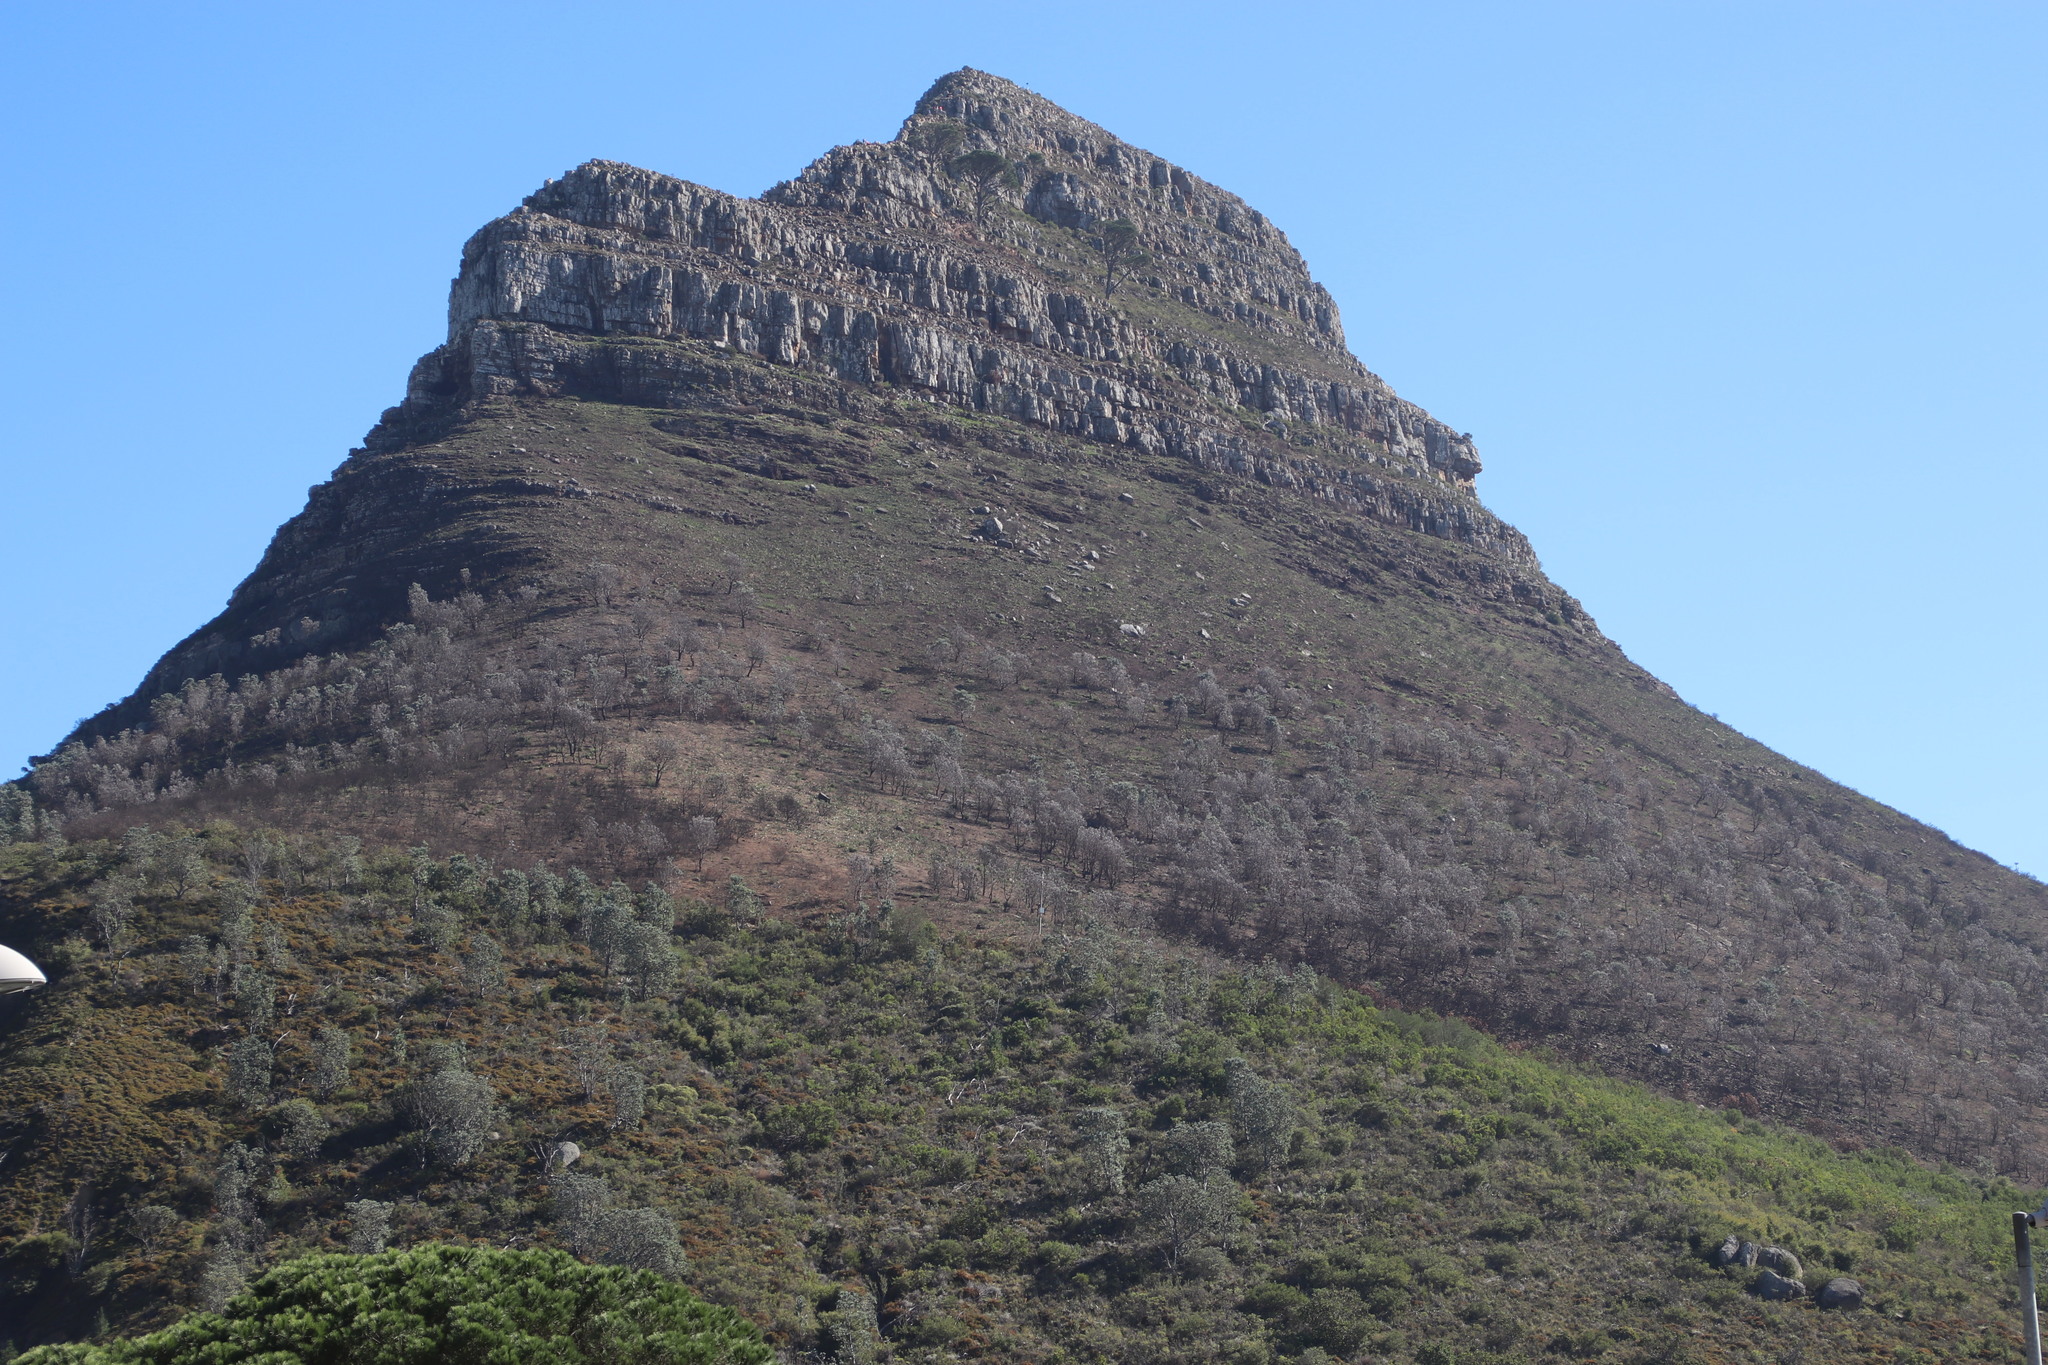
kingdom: Plantae
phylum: Tracheophyta
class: Magnoliopsida
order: Proteales
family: Proteaceae
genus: Leucadendron
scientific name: Leucadendron argenteum
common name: Cape silver tree
